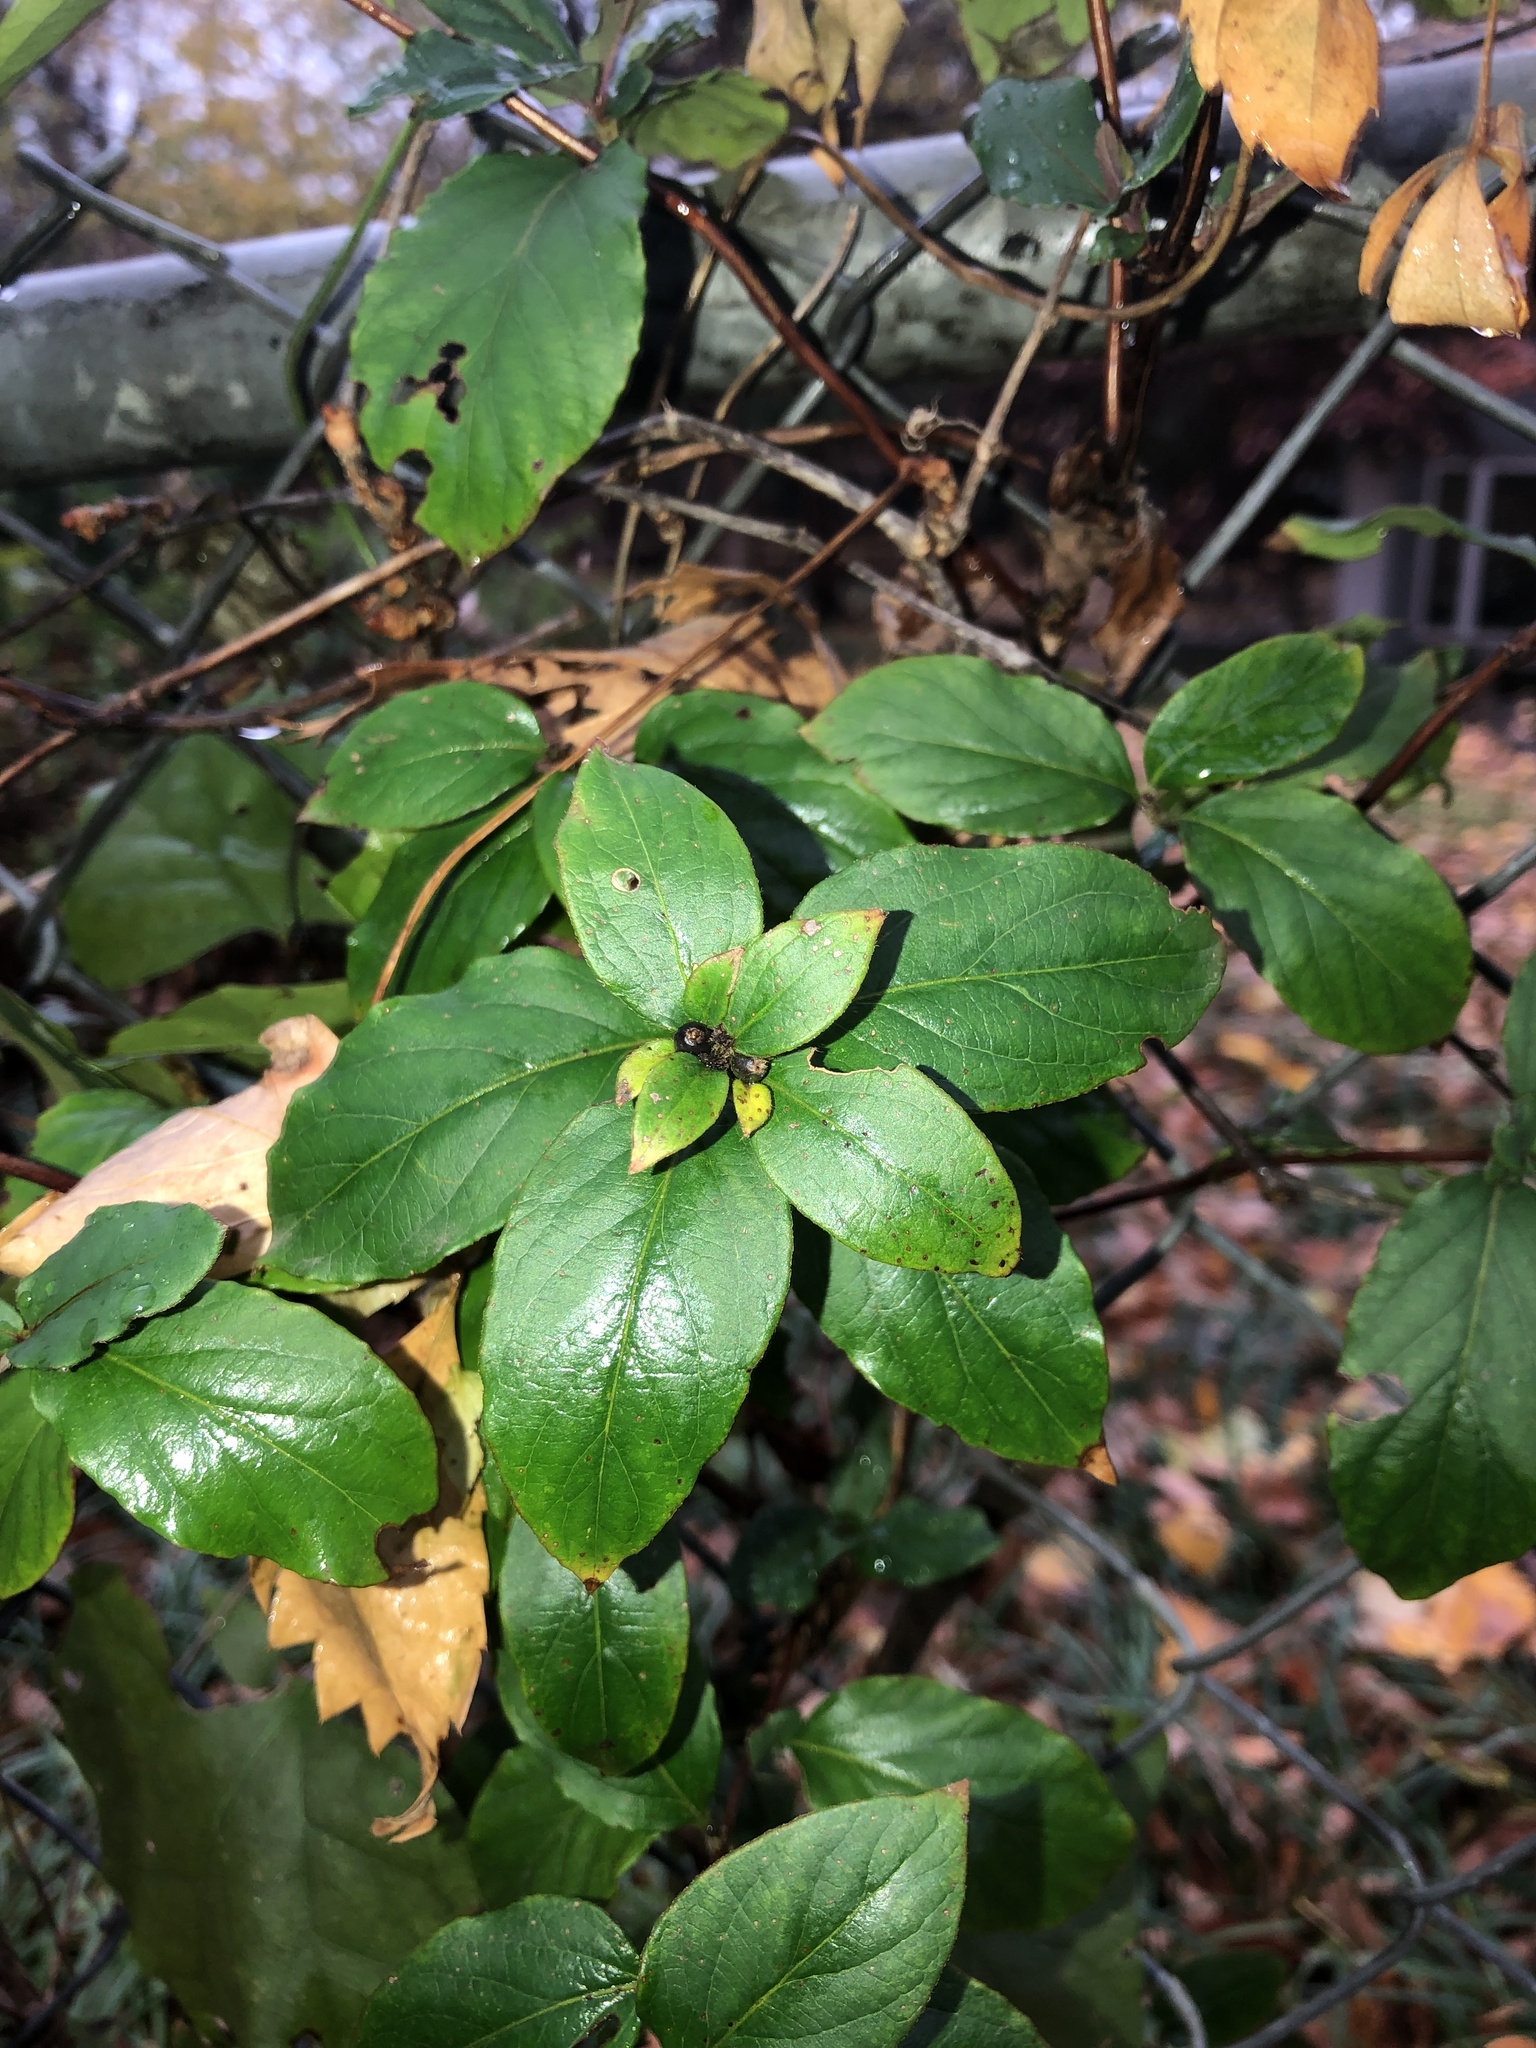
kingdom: Plantae
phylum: Tracheophyta
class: Magnoliopsida
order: Dipsacales
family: Caprifoliaceae
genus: Lonicera
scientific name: Lonicera japonica
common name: Japanese honeysuckle
